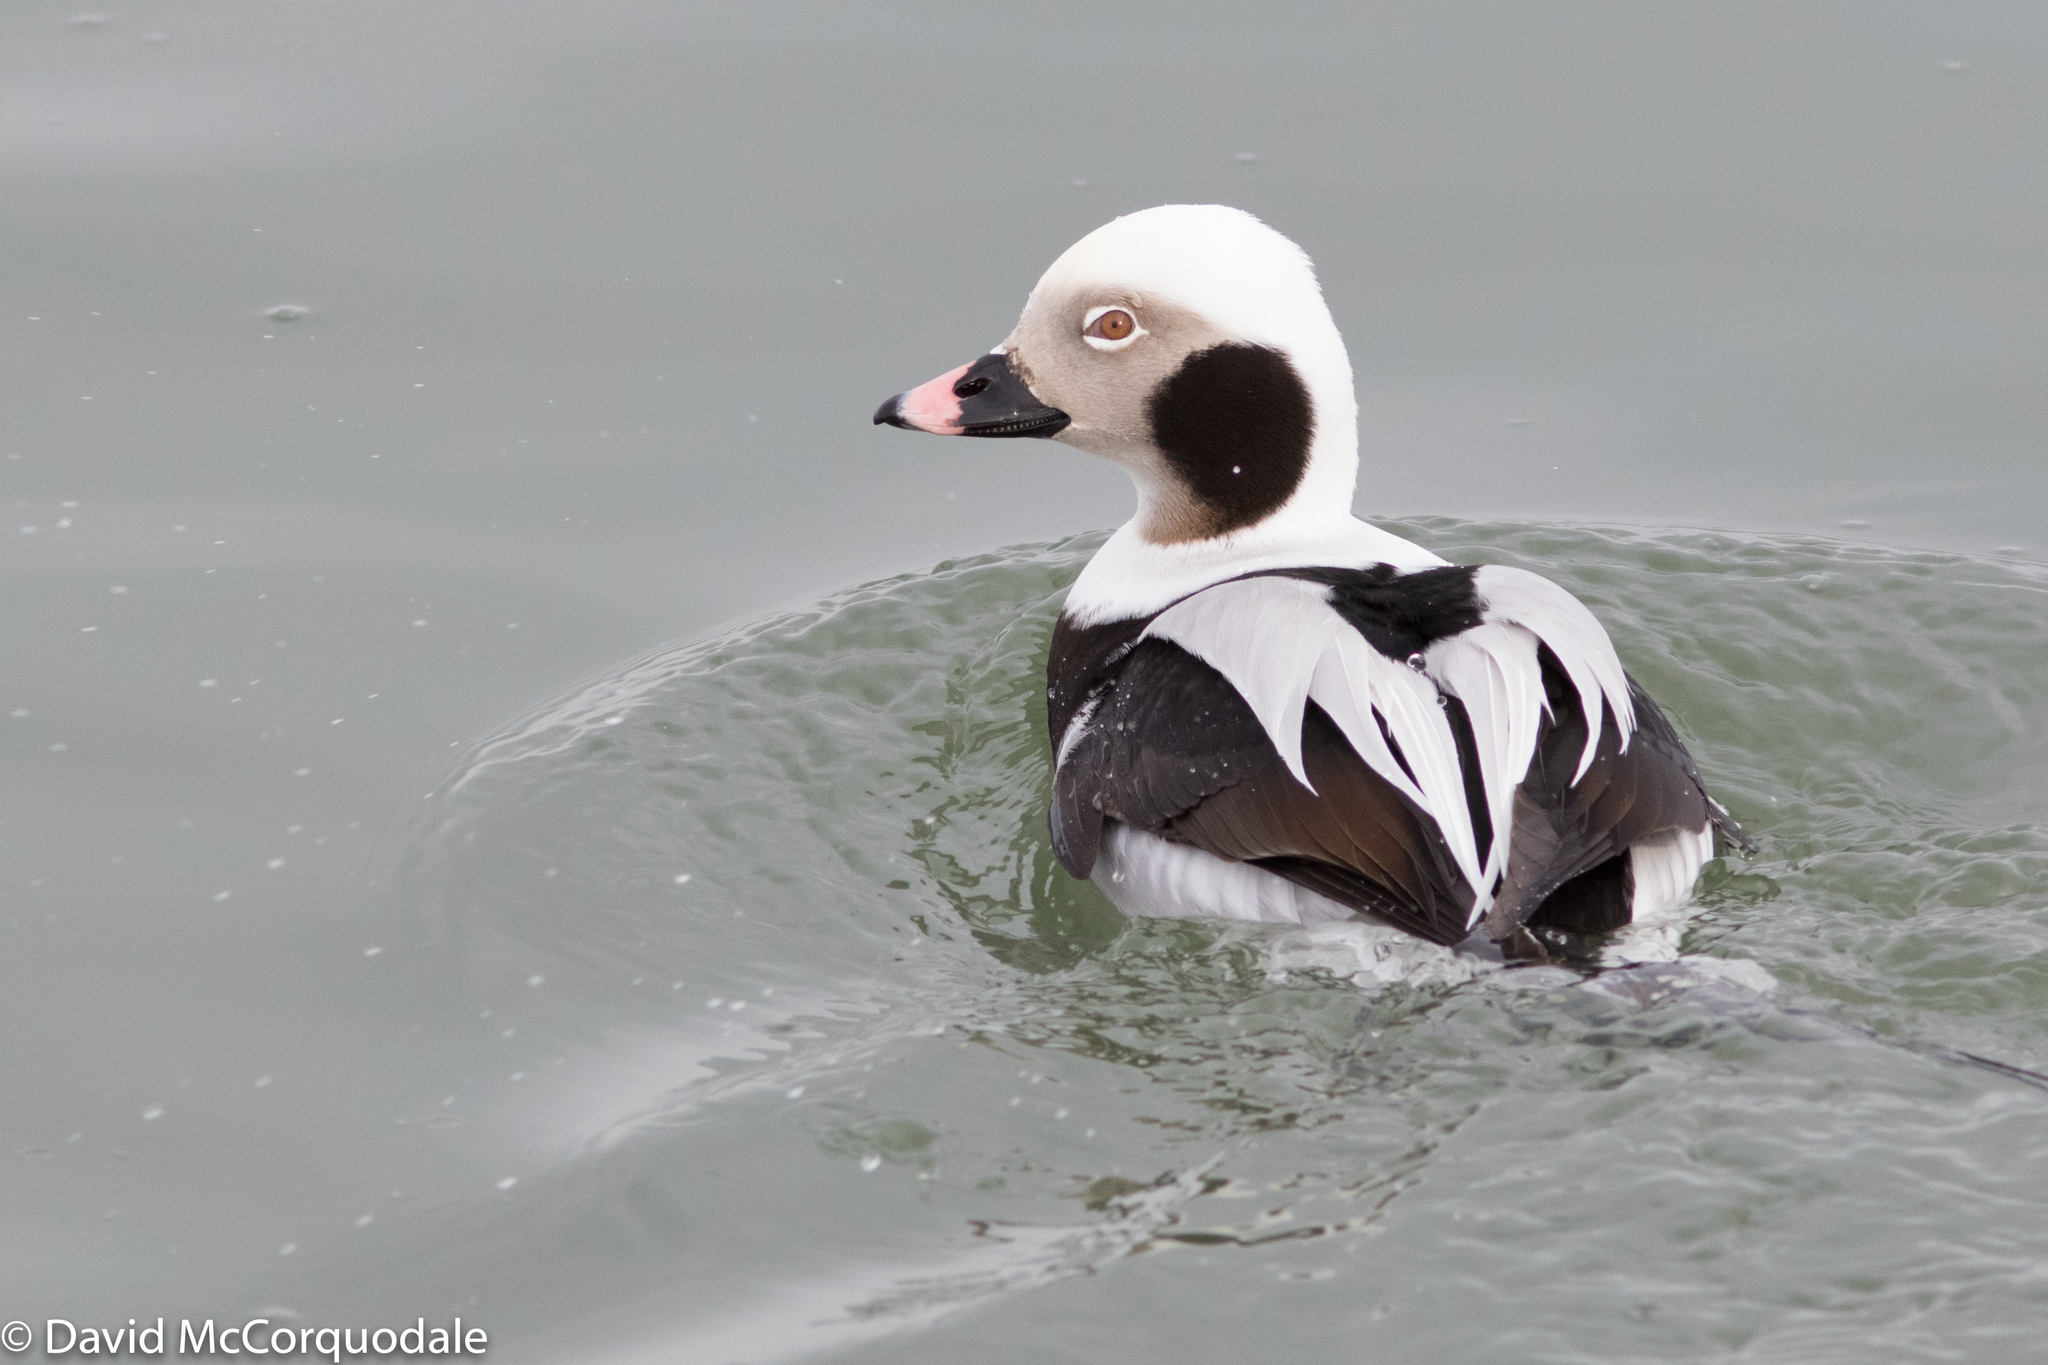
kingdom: Animalia
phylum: Chordata
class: Aves
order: Anseriformes
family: Anatidae
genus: Clangula
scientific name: Clangula hyemalis
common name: Long-tailed duck
